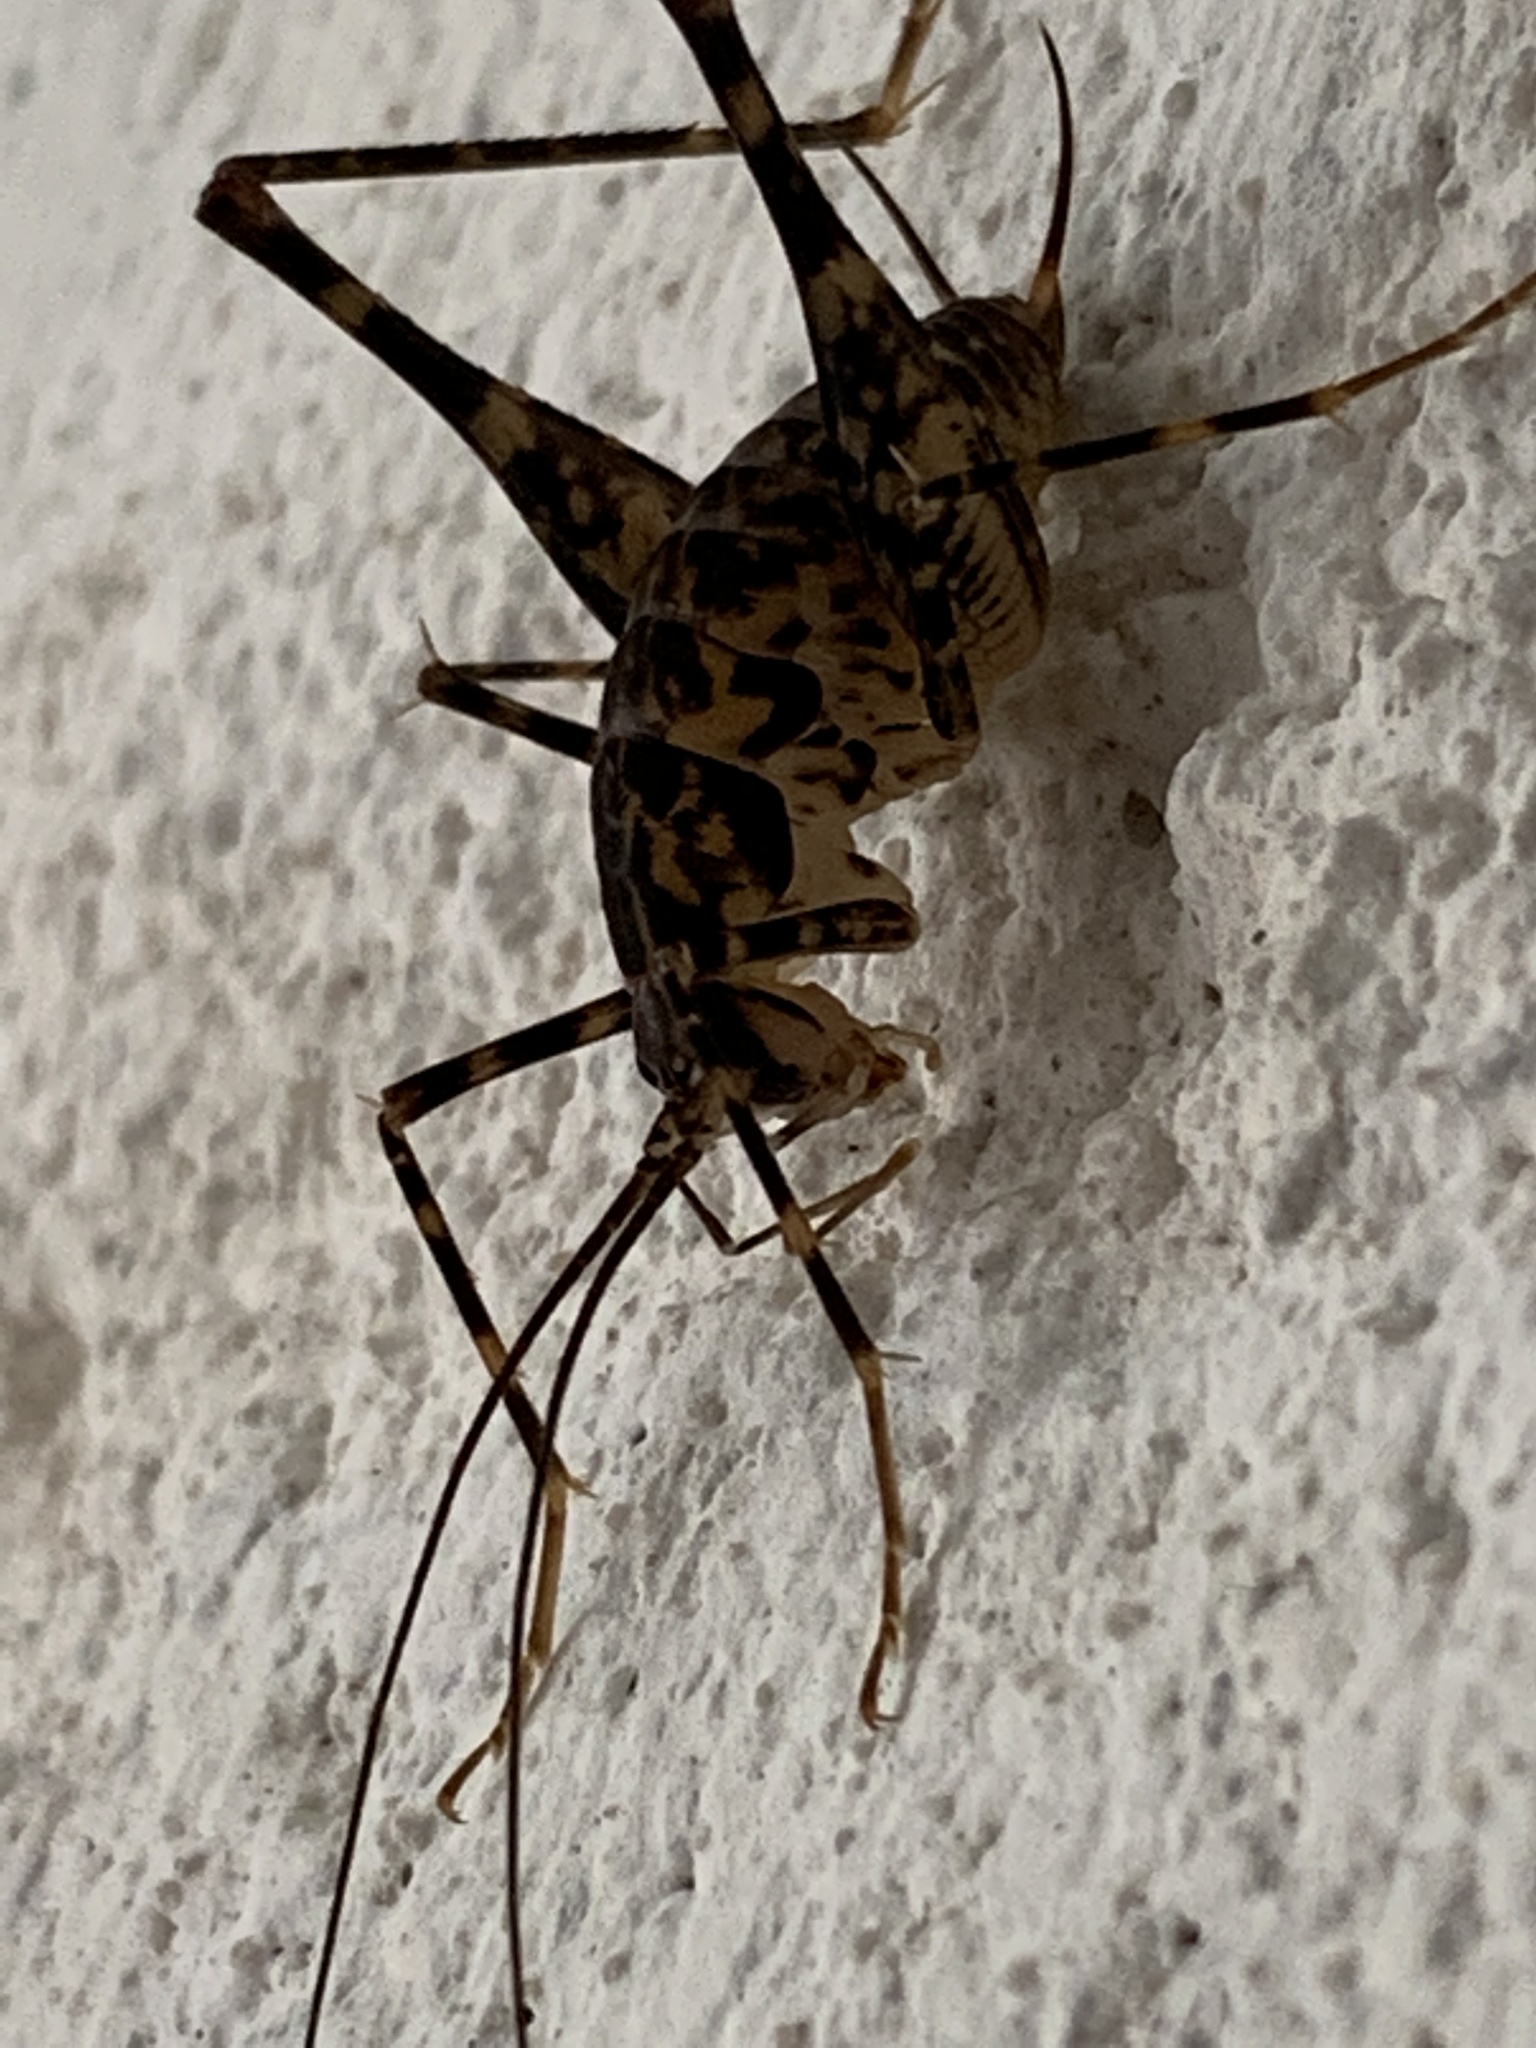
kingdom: Animalia
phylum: Arthropoda
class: Insecta
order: Orthoptera
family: Rhaphidophoridae
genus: Diestrammena
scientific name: Diestrammena japanica
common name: Japanese camel cricket
